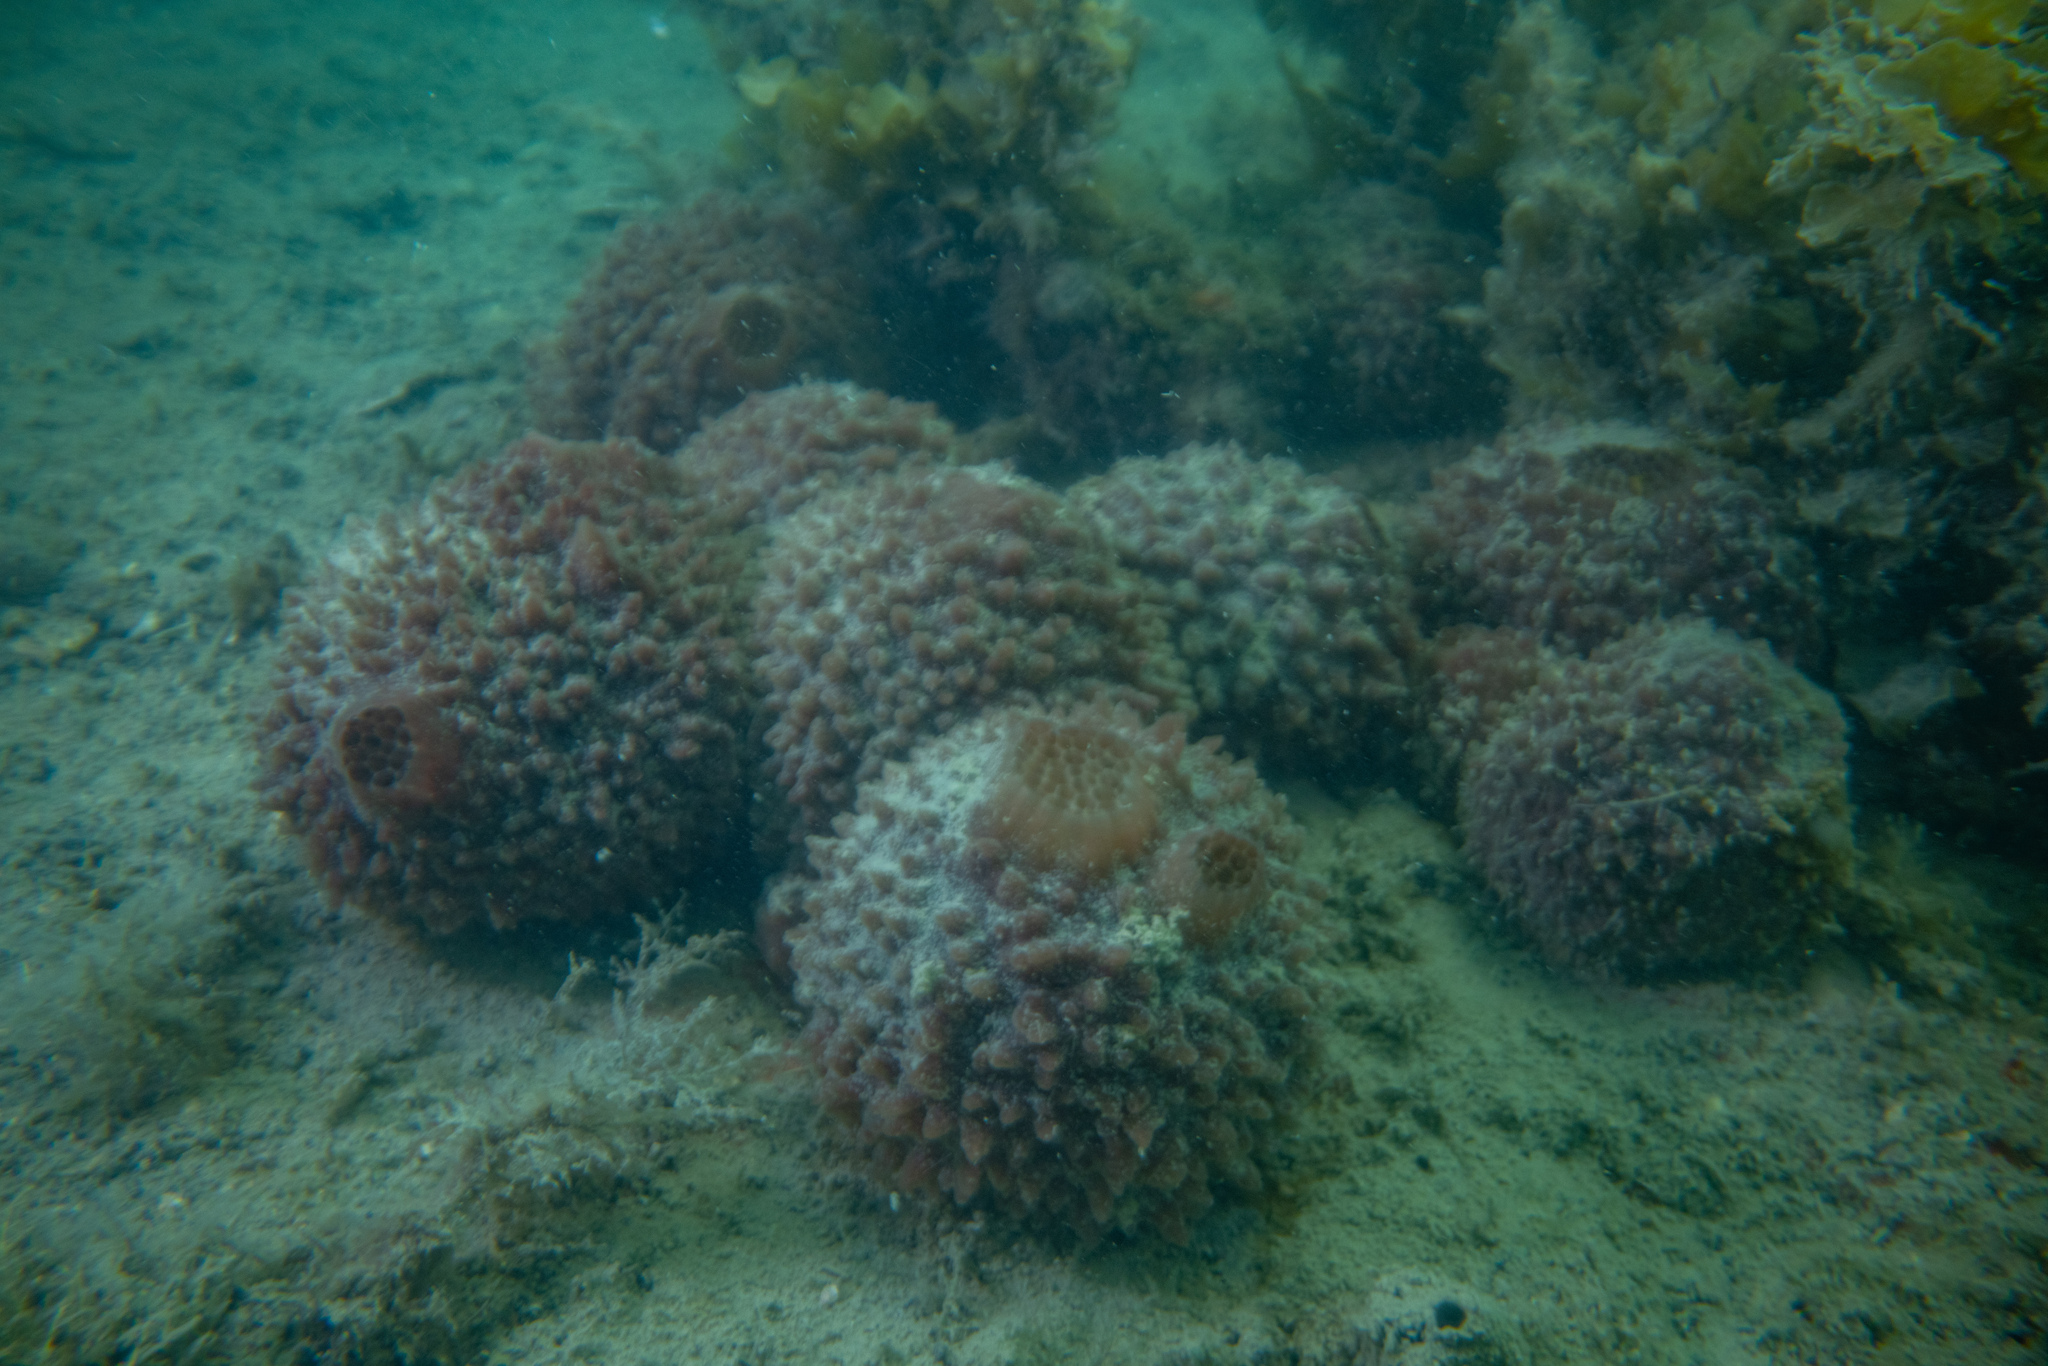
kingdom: Animalia
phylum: Porifera
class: Demospongiae
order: Suberitida
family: Suberitidae
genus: Aaptos
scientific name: Aaptos tenta
